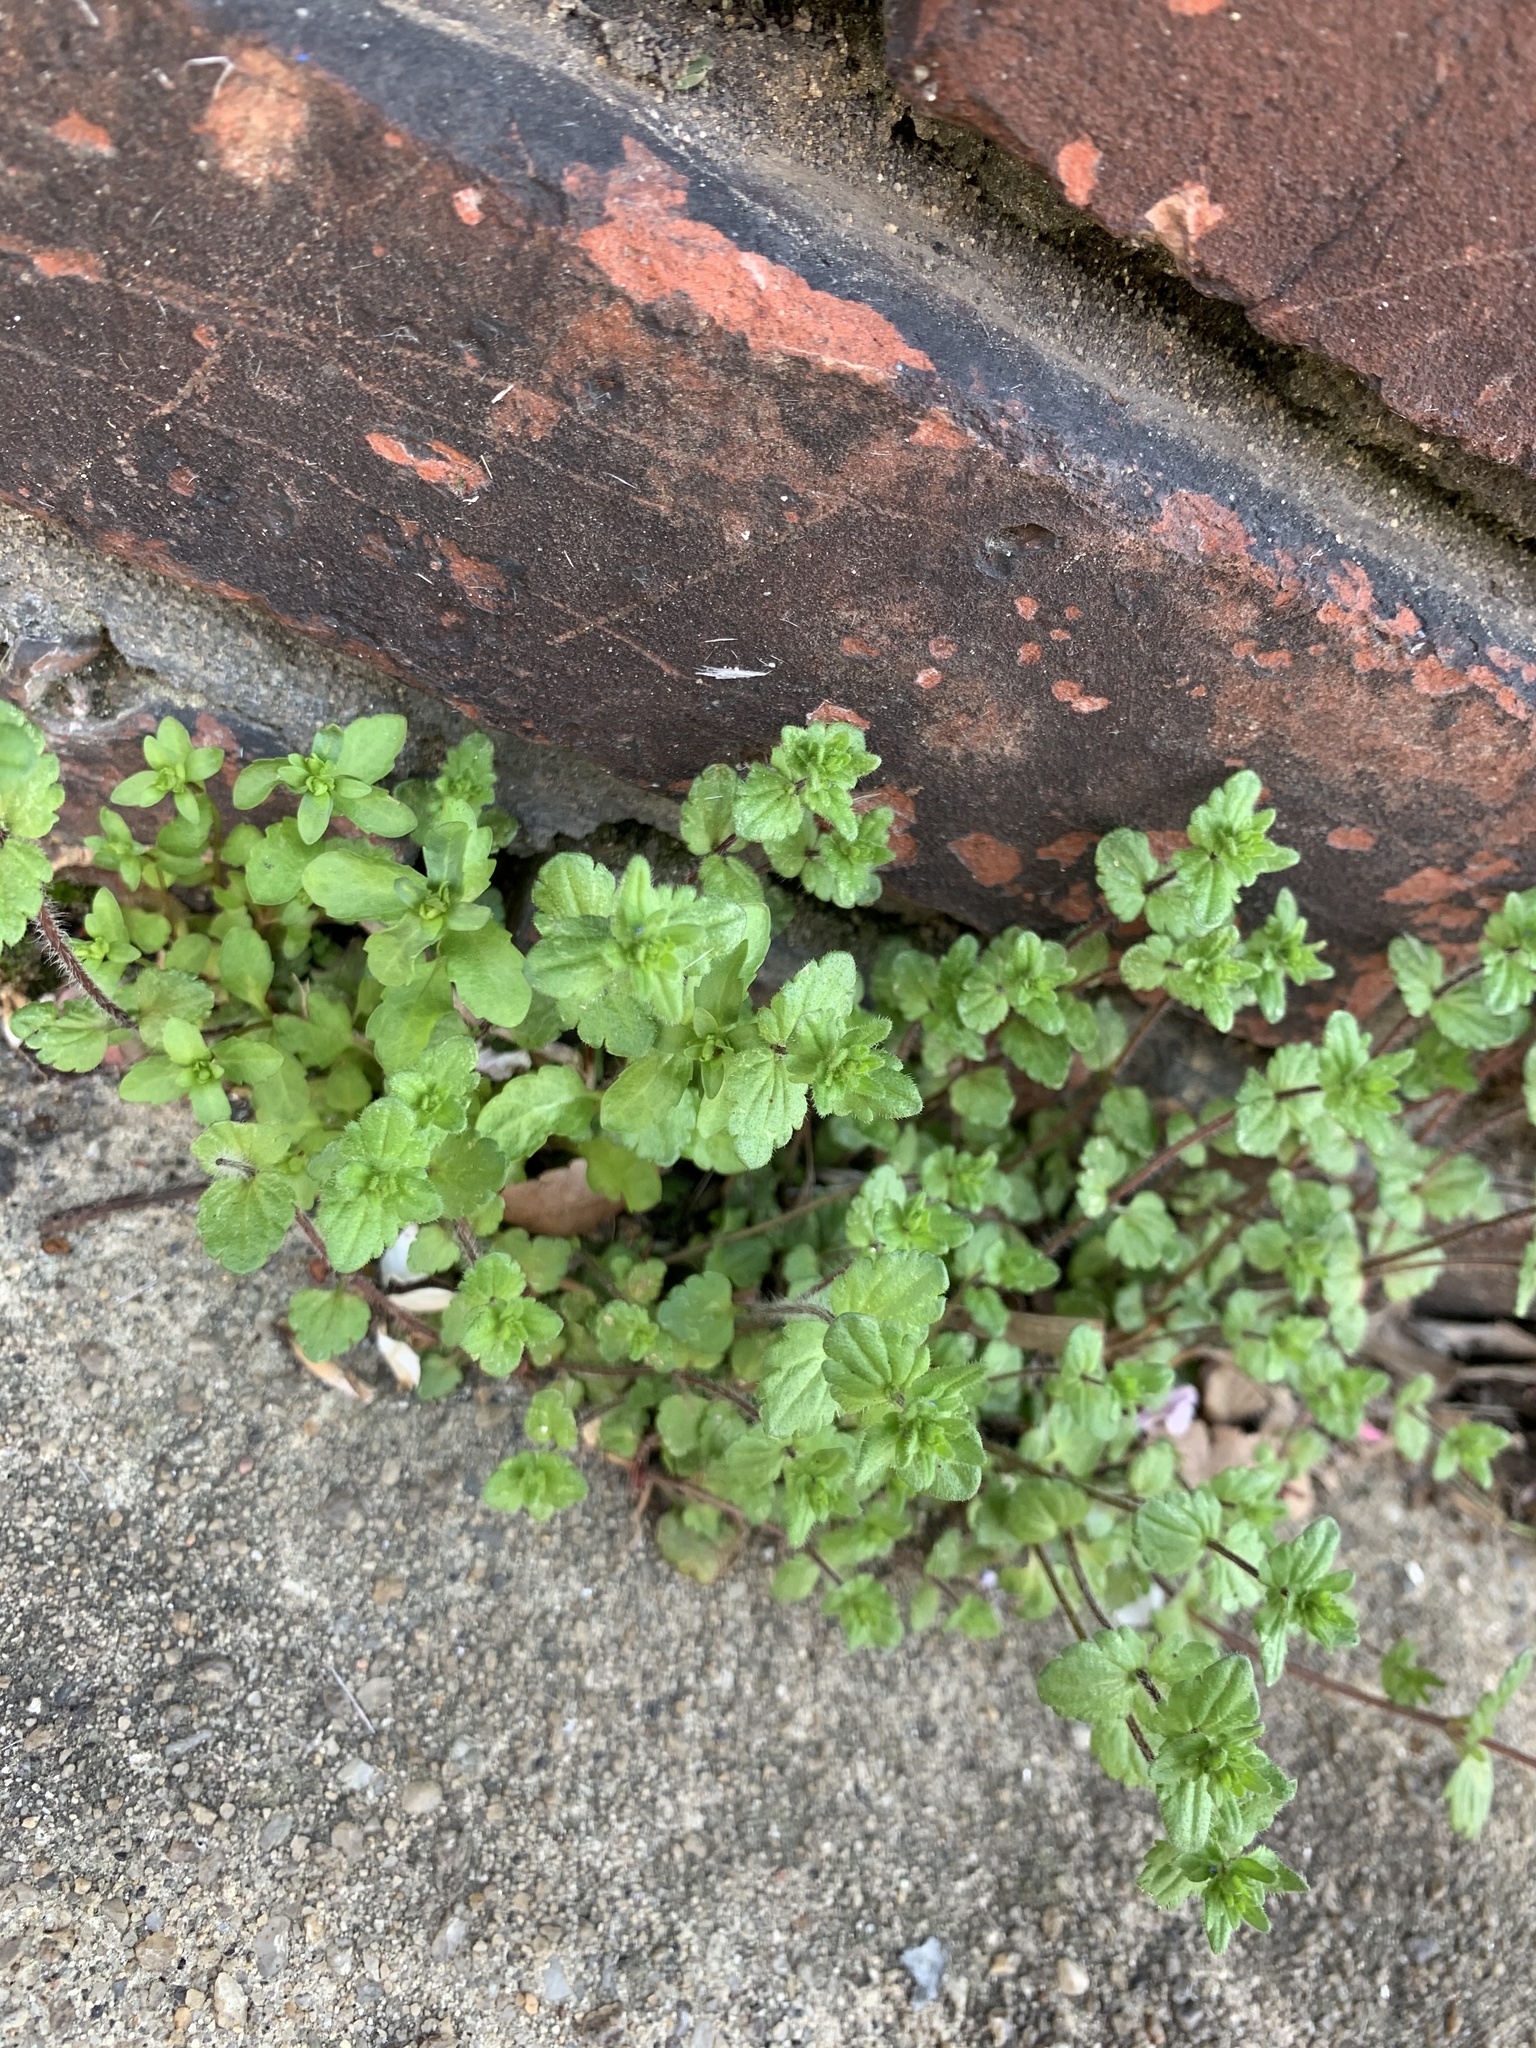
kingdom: Plantae
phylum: Tracheophyta
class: Magnoliopsida
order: Lamiales
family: Plantaginaceae
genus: Veronica
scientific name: Veronica arvensis
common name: Corn speedwell
